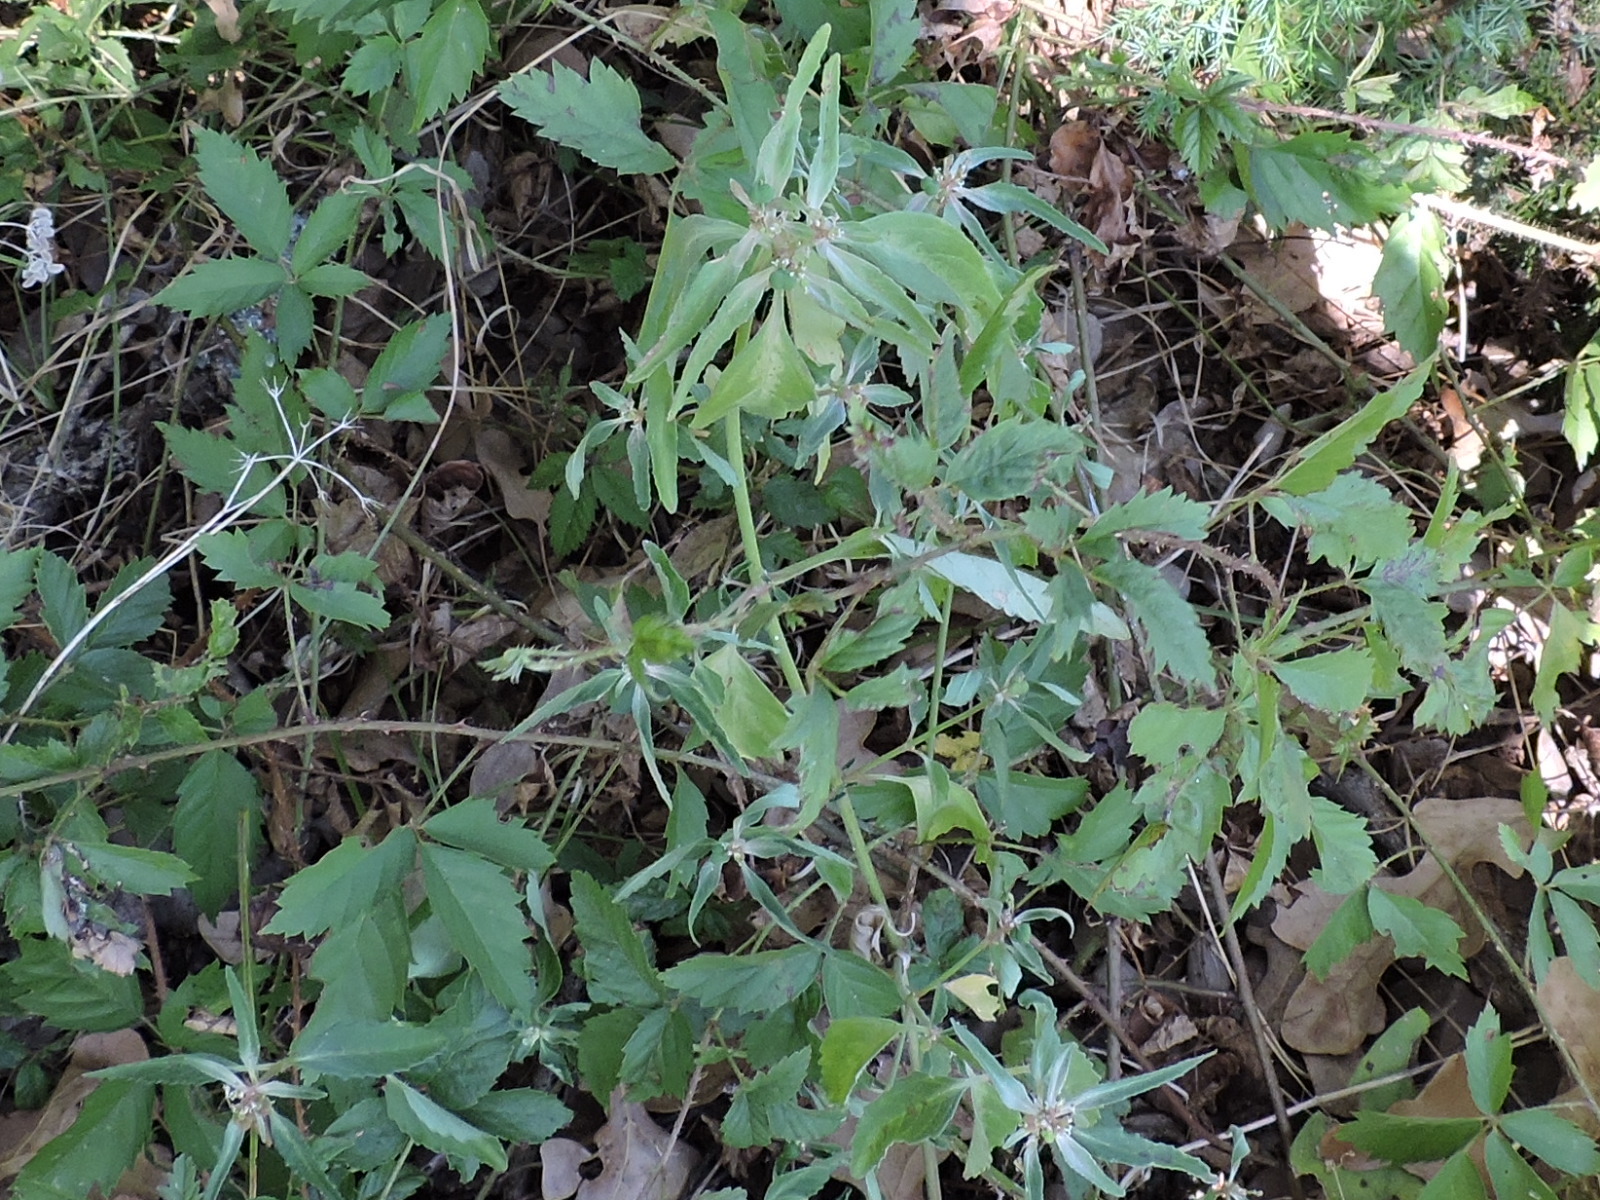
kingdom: Plantae
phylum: Tracheophyta
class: Magnoliopsida
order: Malpighiales
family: Euphorbiaceae
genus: Euphorbia
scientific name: Euphorbia dentata
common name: Dentate spurge
